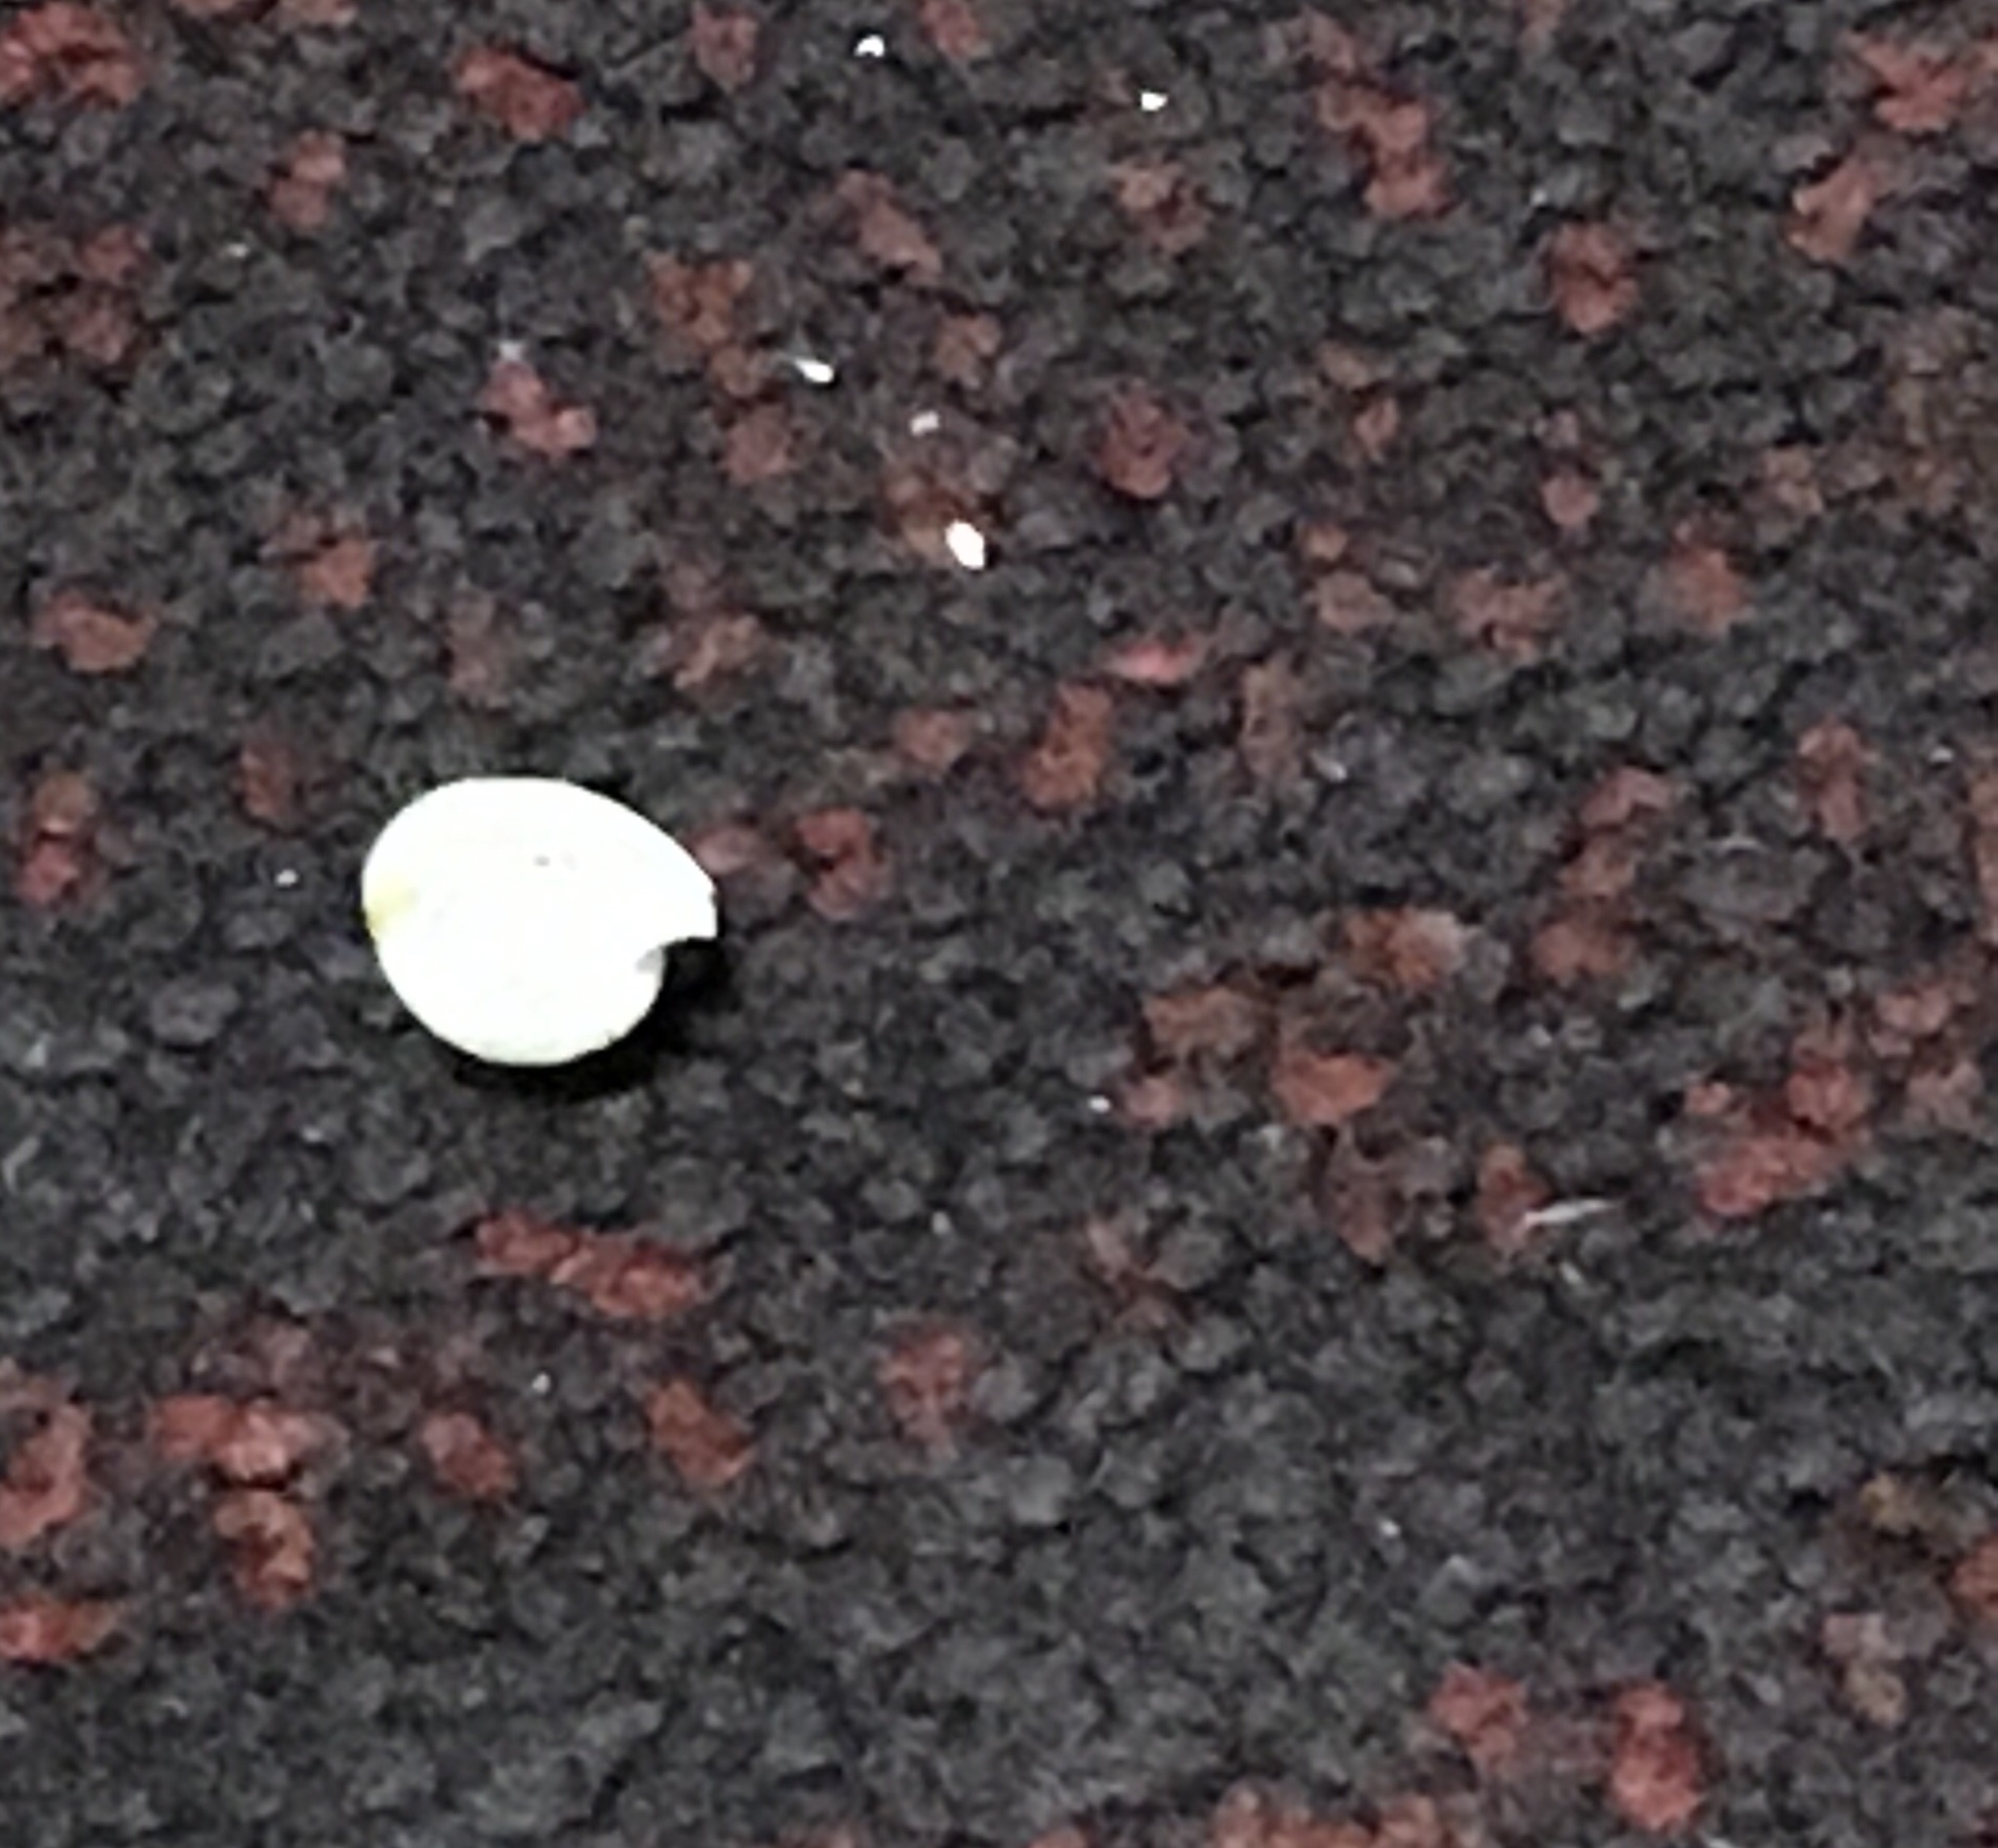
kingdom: Animalia
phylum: Mollusca
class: Gastropoda
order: Cephalaspidea
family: Haminoeidae
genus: Haloa
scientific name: Haloa japonica
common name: Japanese bubble snail
